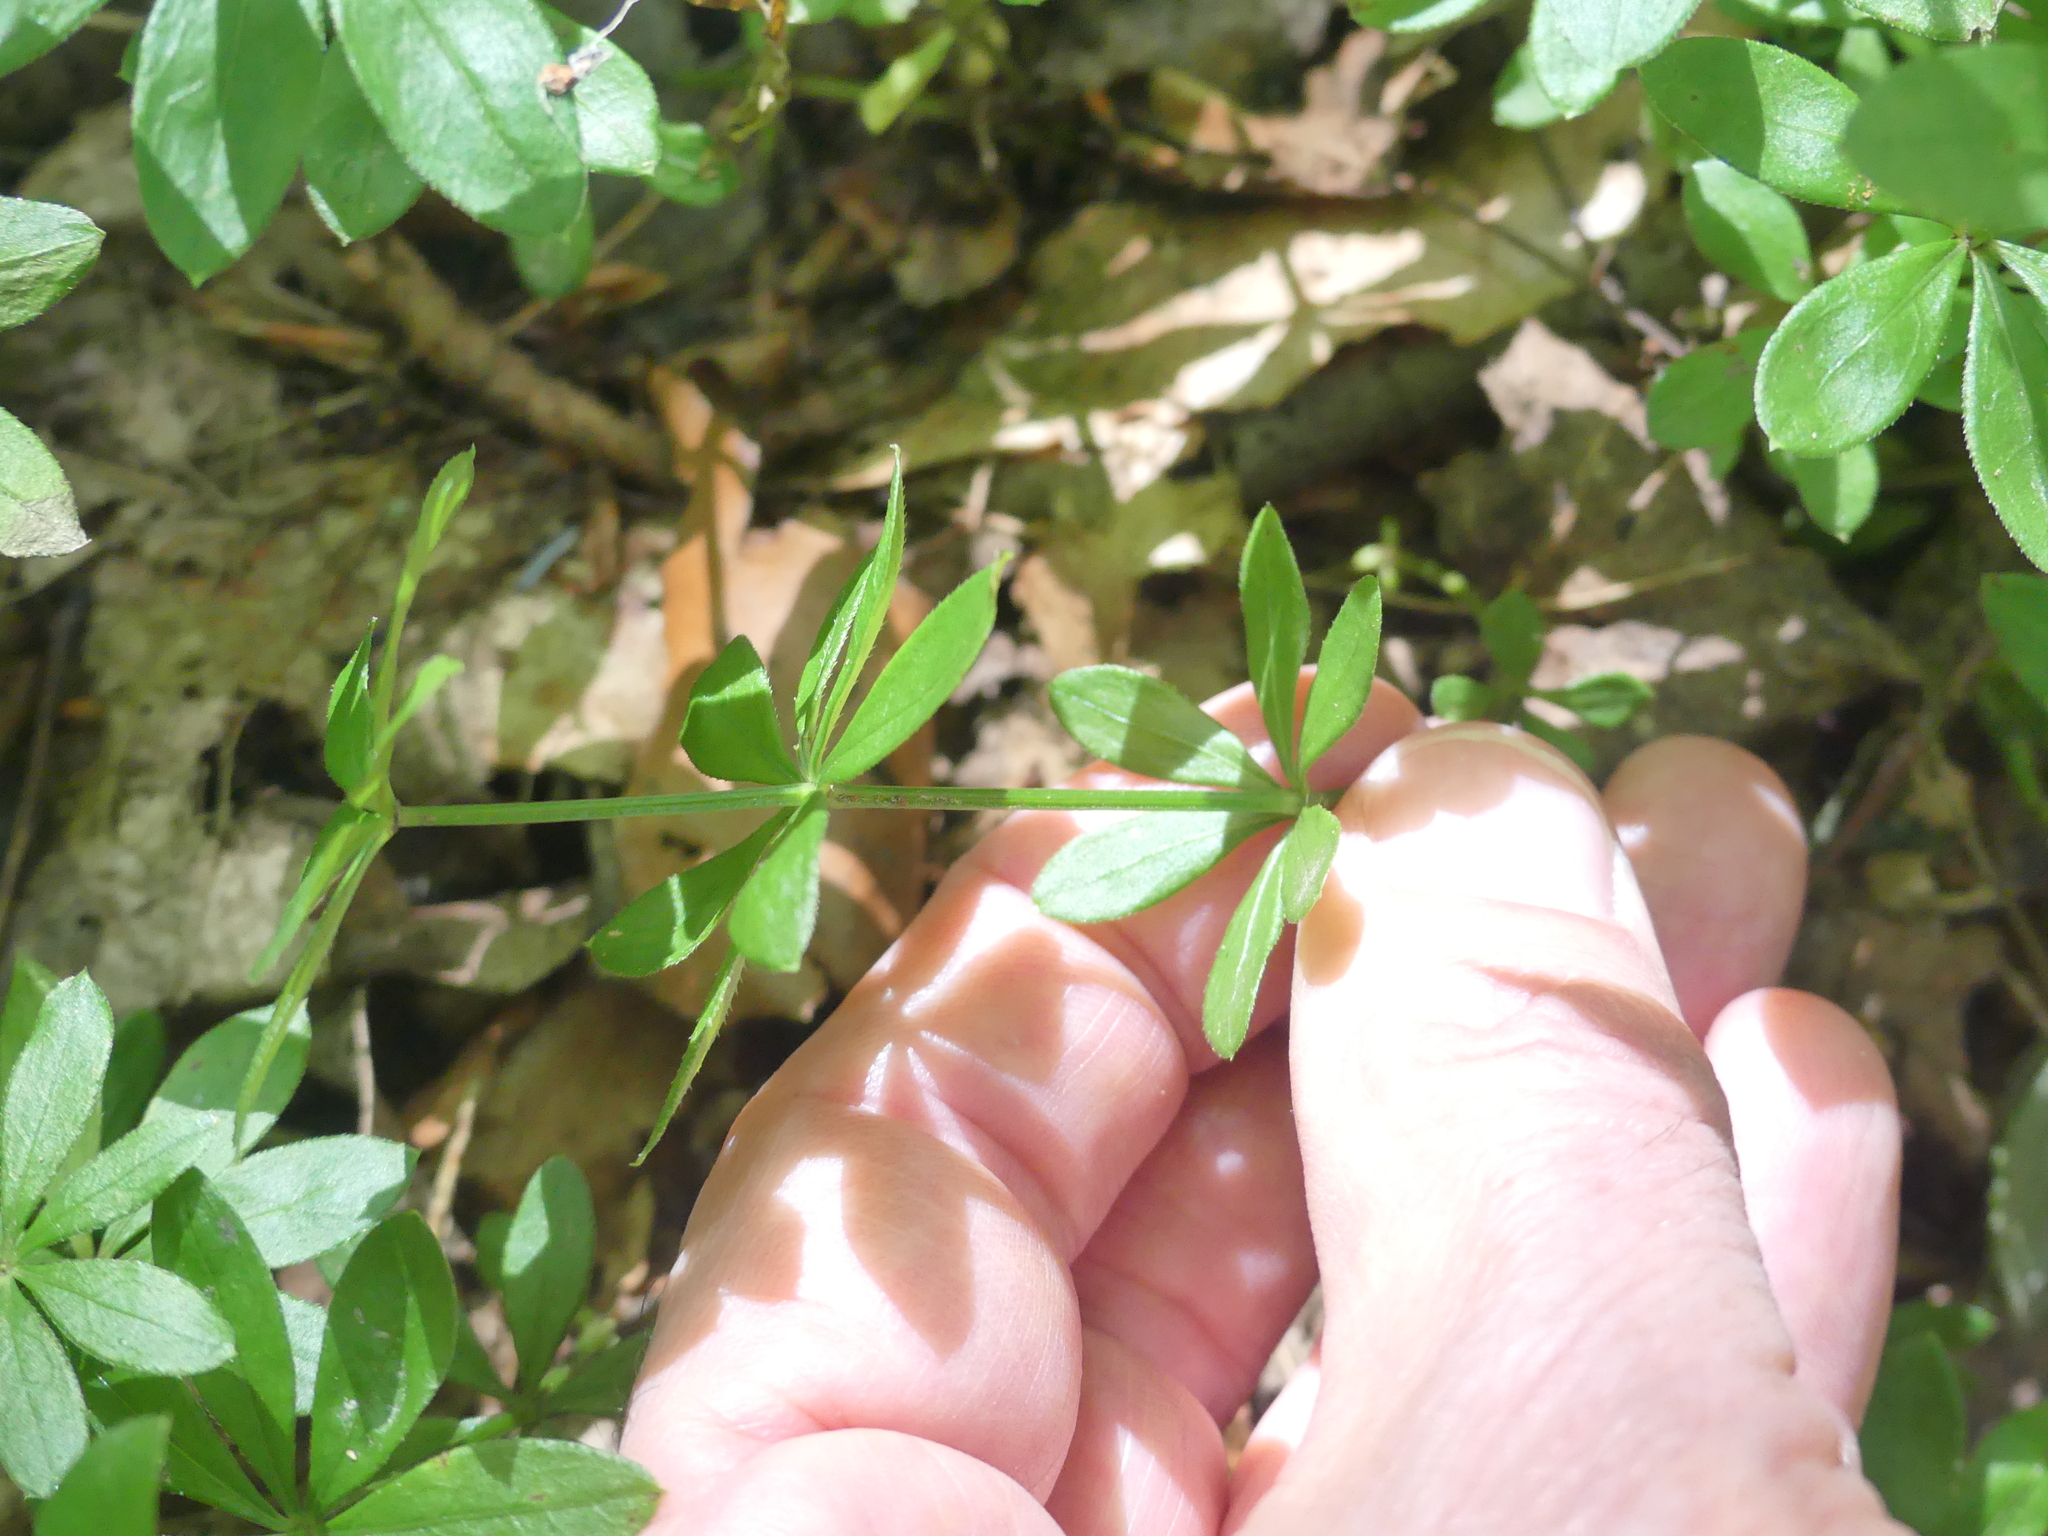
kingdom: Plantae
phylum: Tracheophyta
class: Magnoliopsida
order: Gentianales
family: Rubiaceae
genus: Galium
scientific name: Galium odoratum
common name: Sweet woodruff
